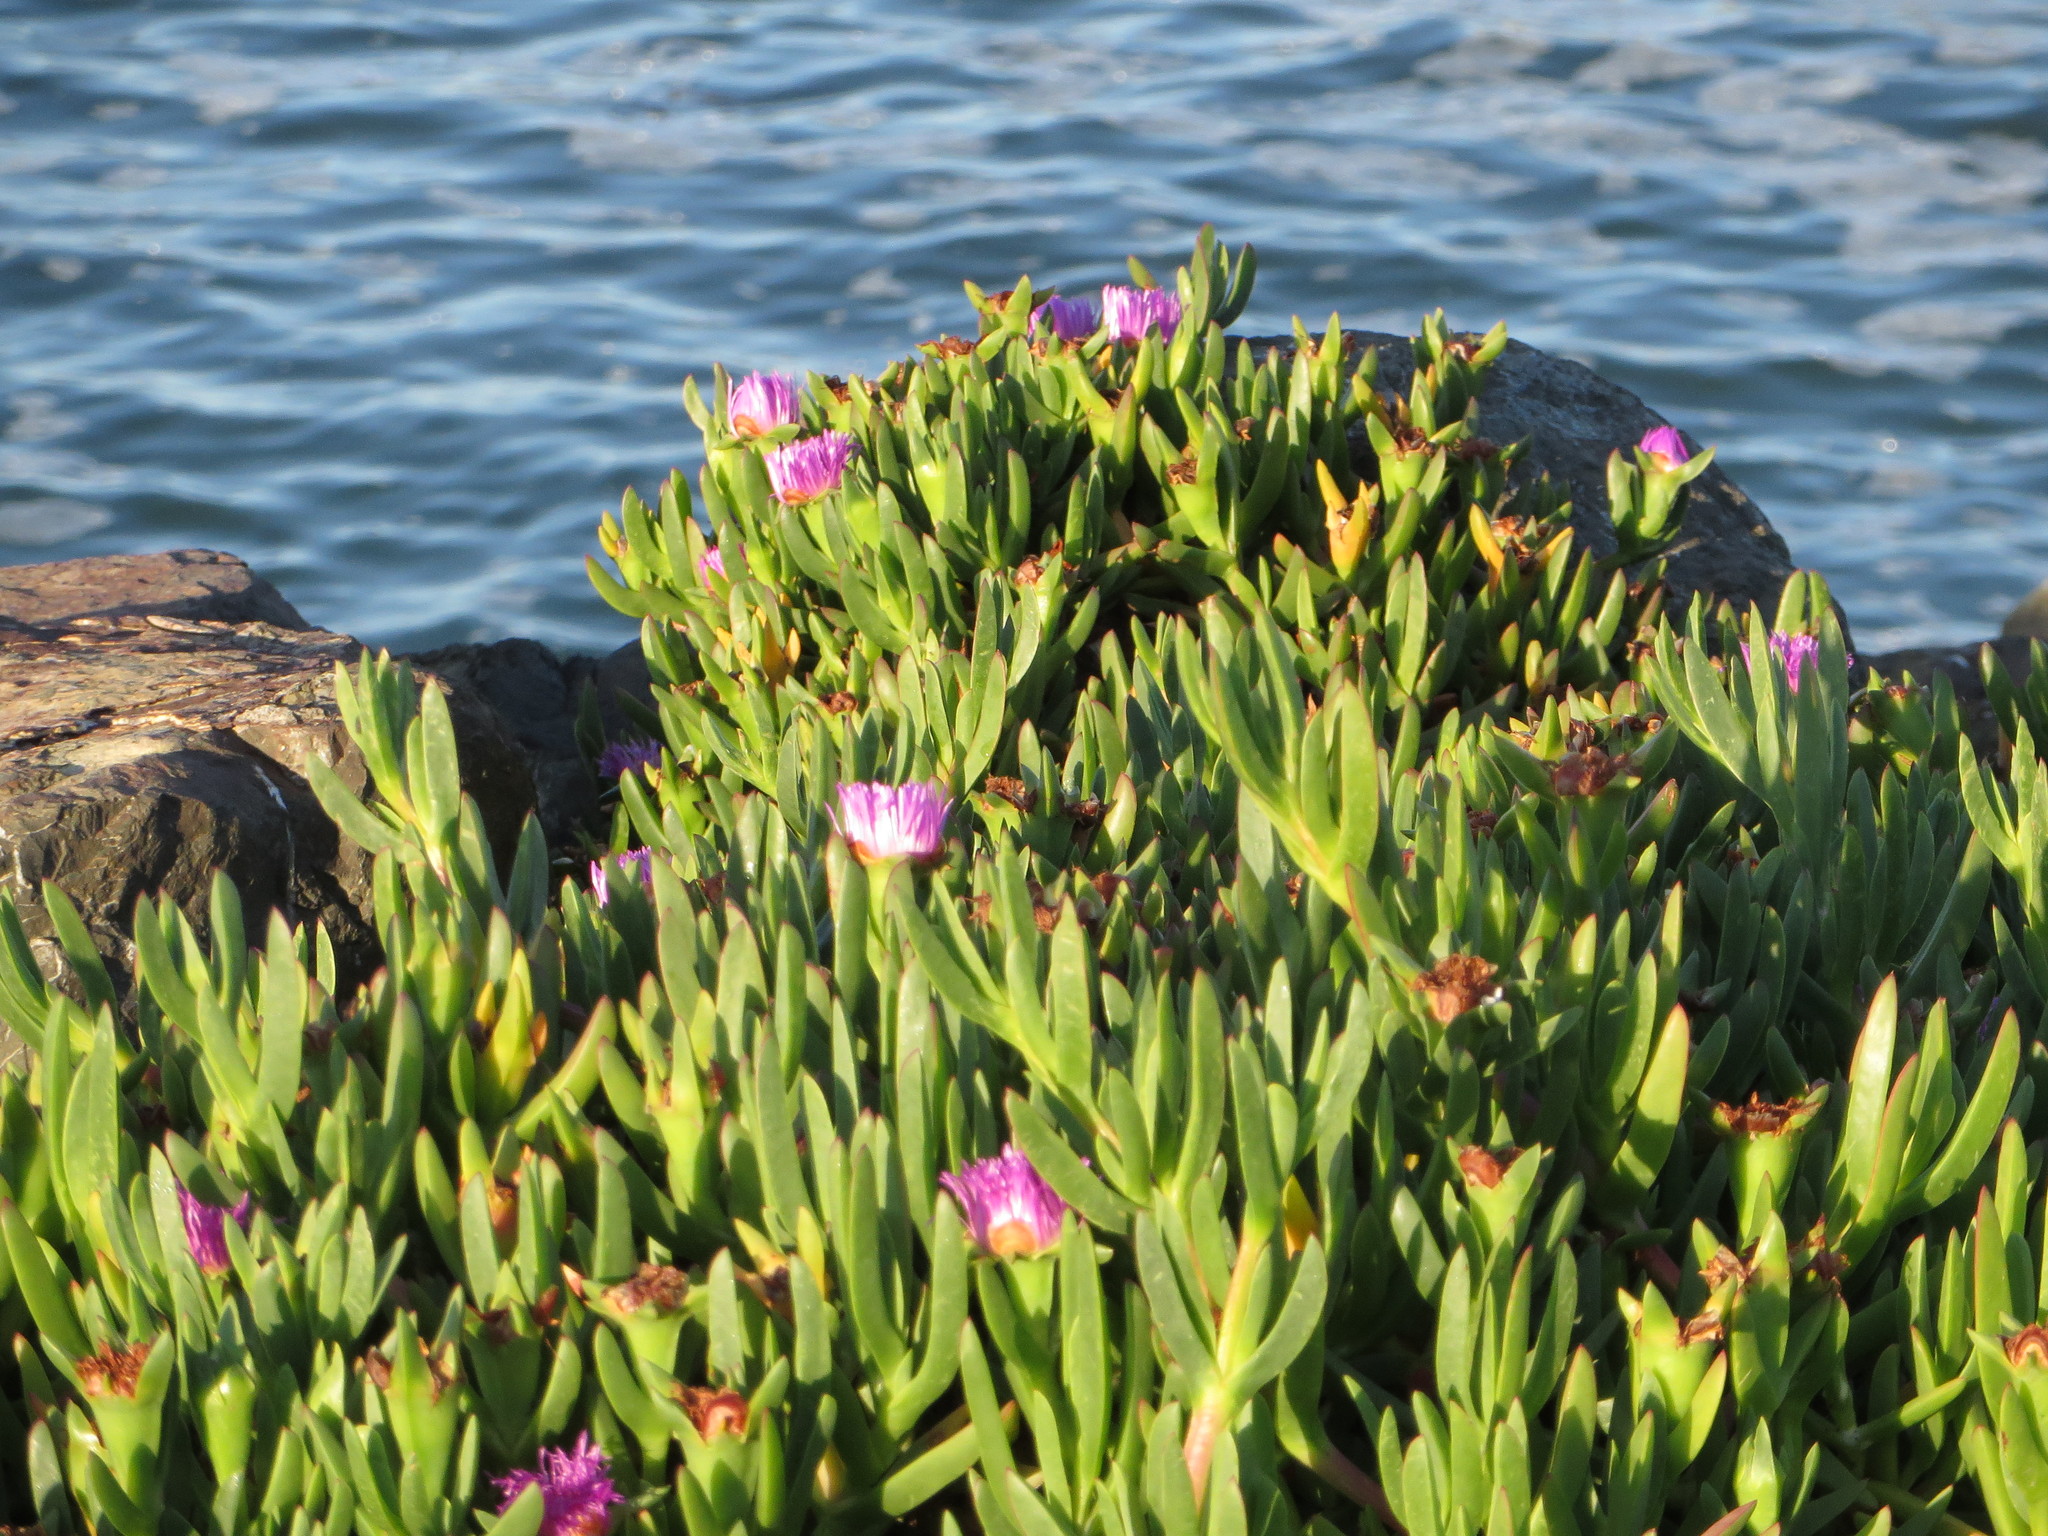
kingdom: Plantae
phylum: Tracheophyta
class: Magnoliopsida
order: Caryophyllales
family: Aizoaceae
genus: Carpobrotus
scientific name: Carpobrotus chilensis
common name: Sea fig
